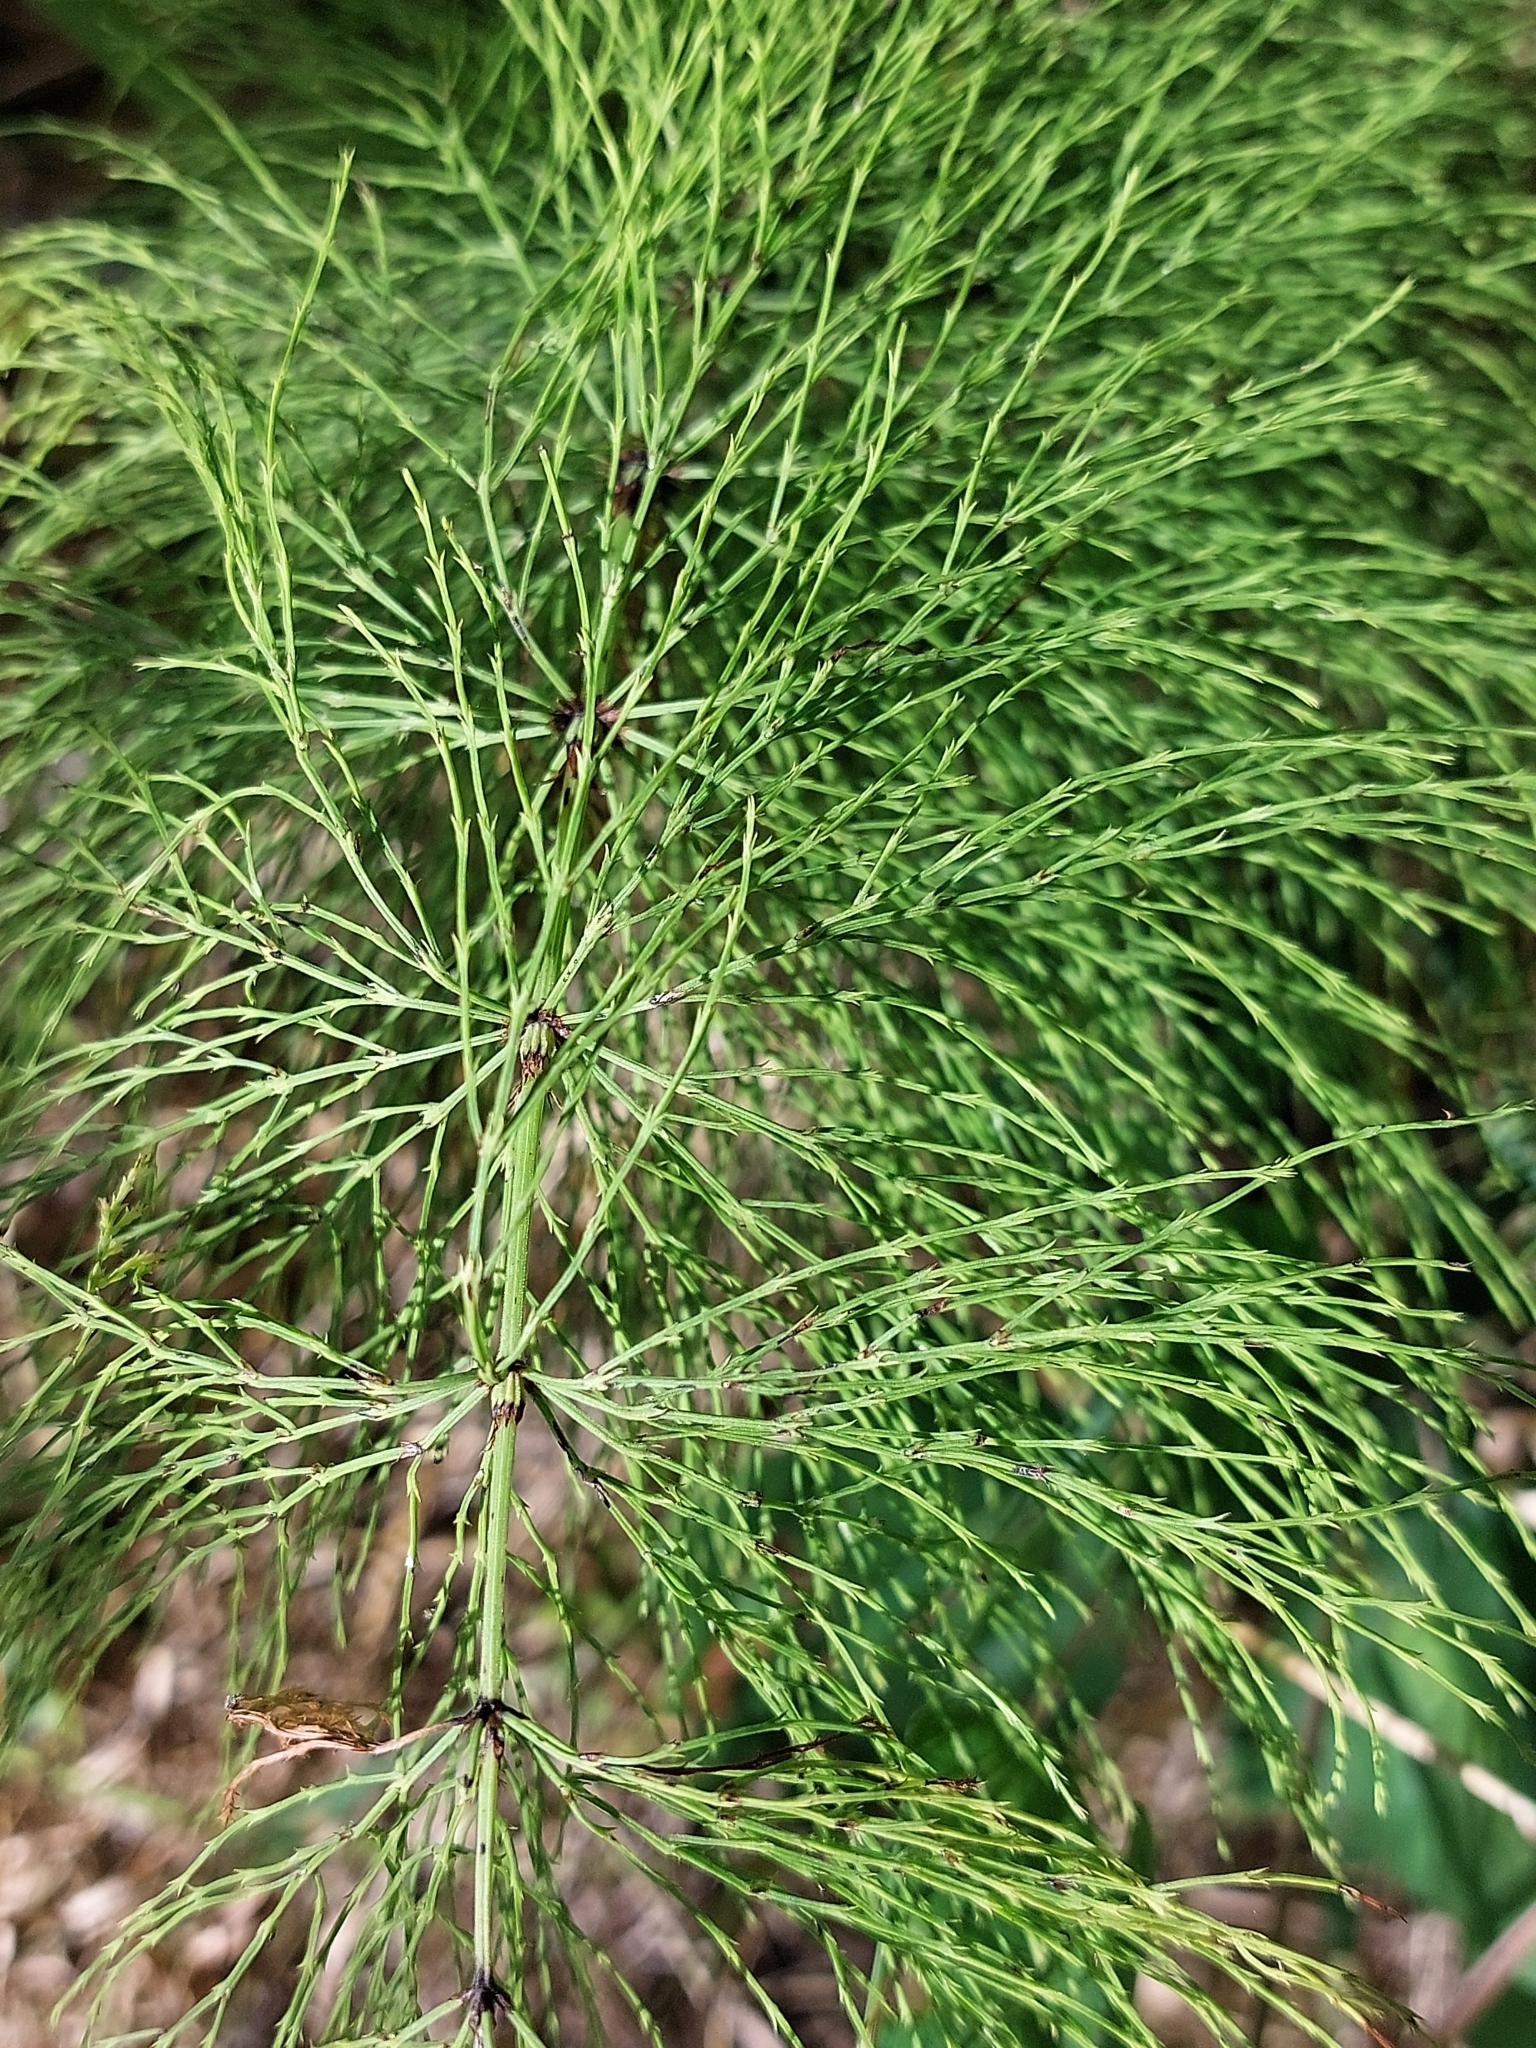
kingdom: Plantae
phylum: Tracheophyta
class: Polypodiopsida
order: Equisetales
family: Equisetaceae
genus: Equisetum
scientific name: Equisetum sylvaticum
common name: Wood horsetail
